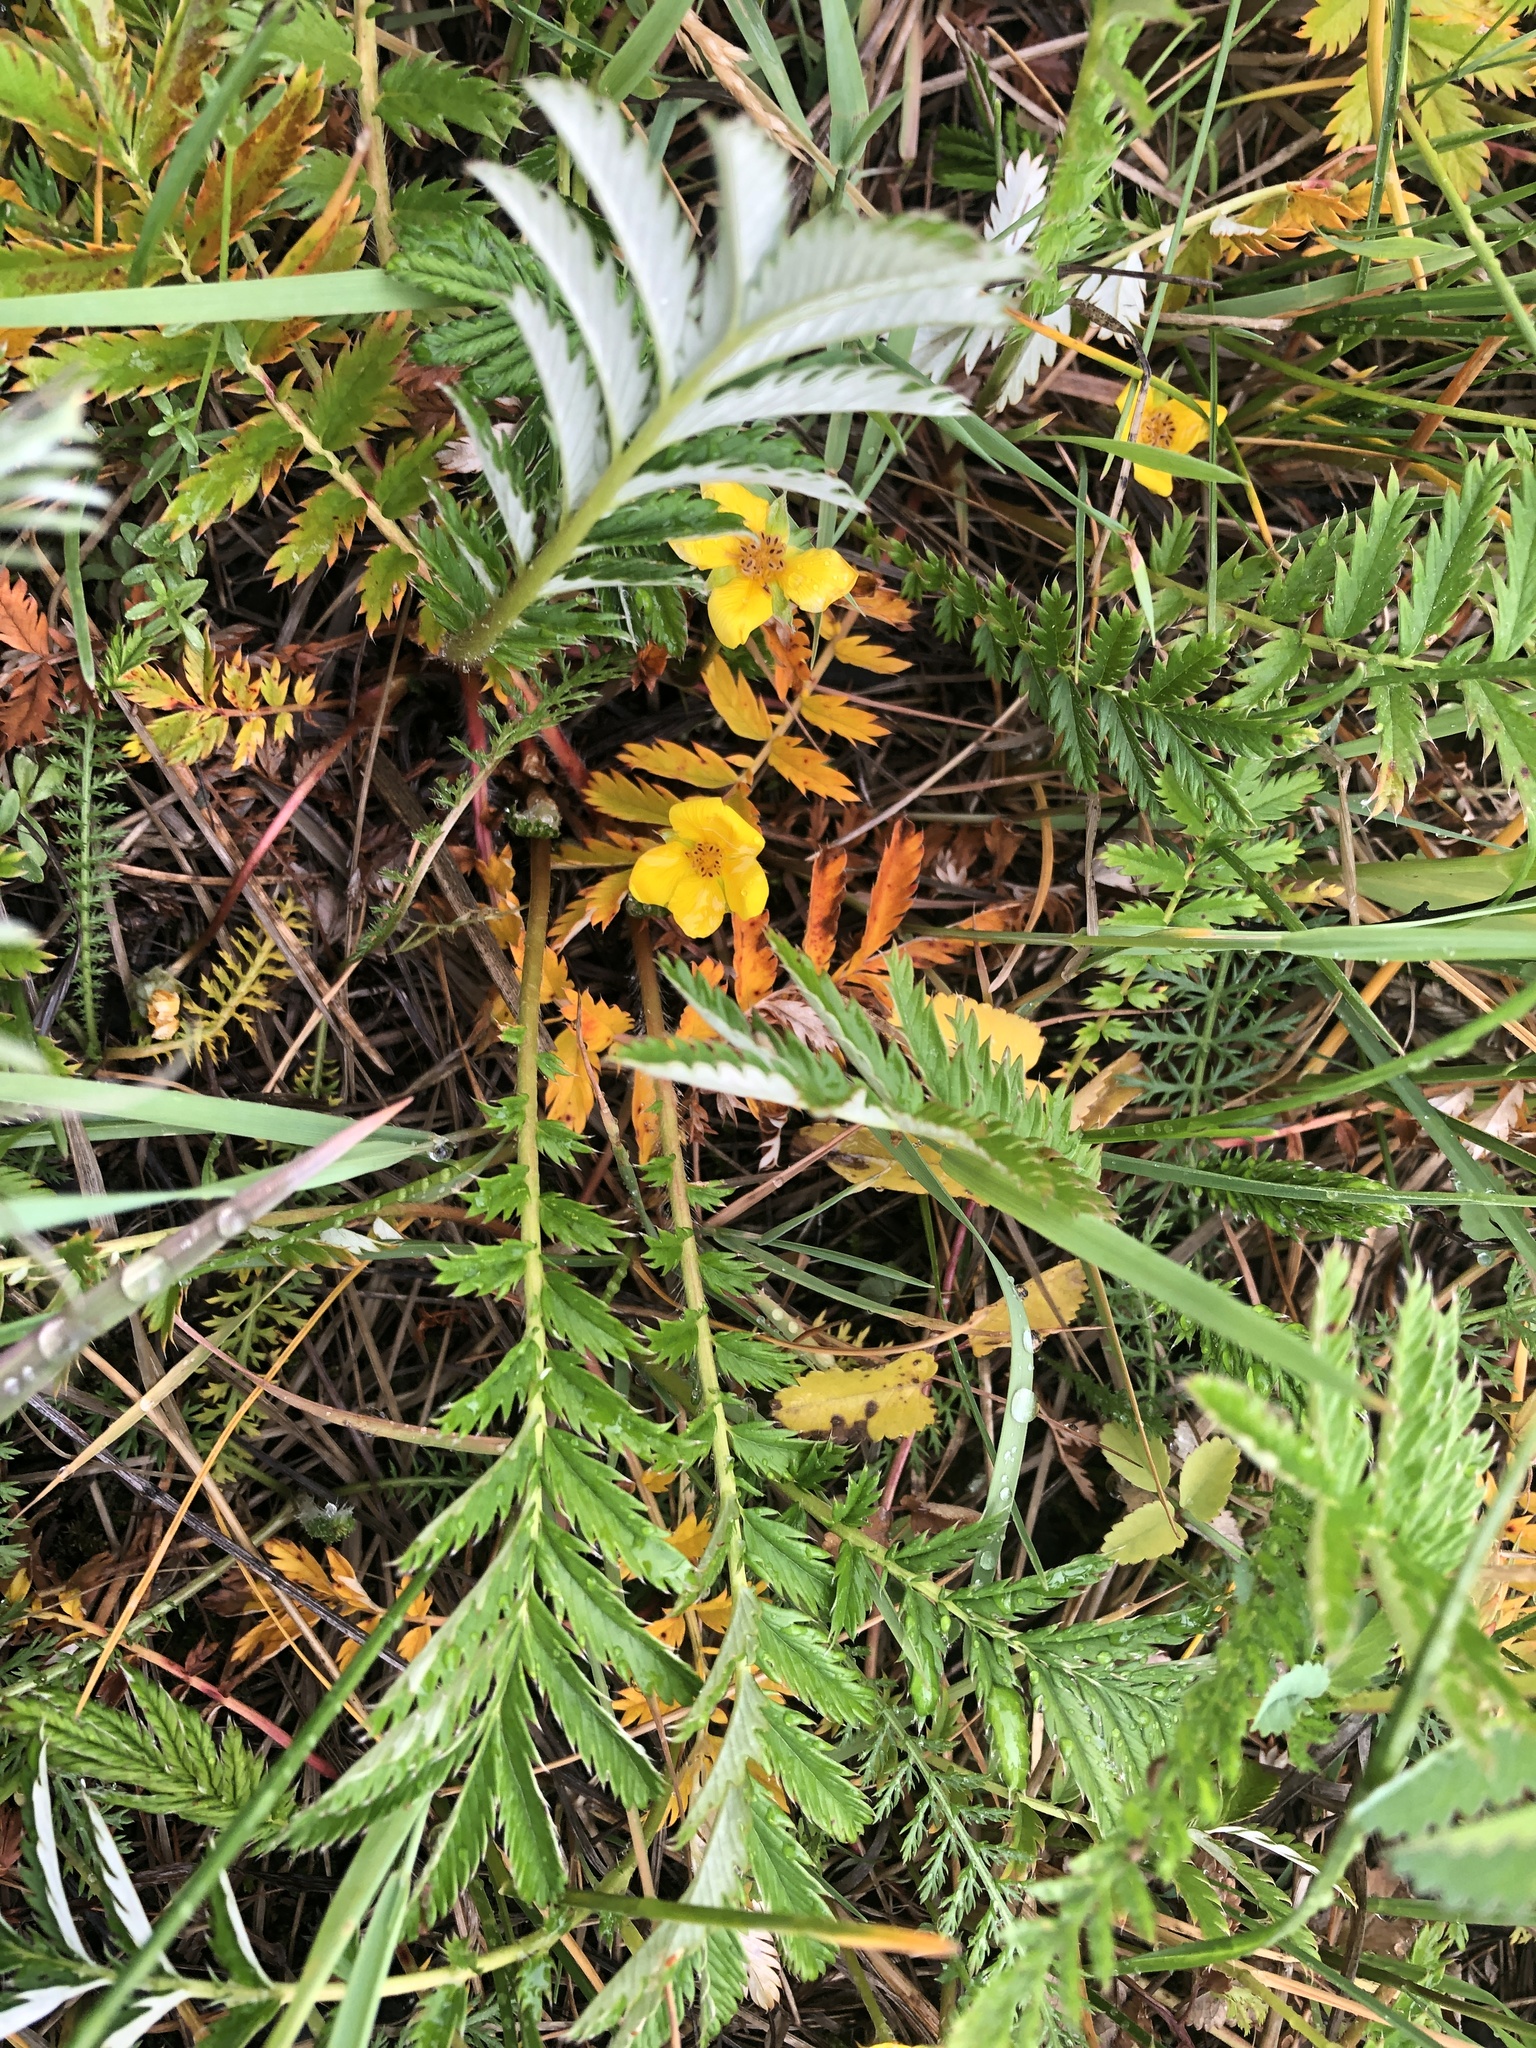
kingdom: Plantae
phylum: Tracheophyta
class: Magnoliopsida
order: Rosales
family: Rosaceae
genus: Argentina
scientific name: Argentina anserina
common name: Common silverweed
